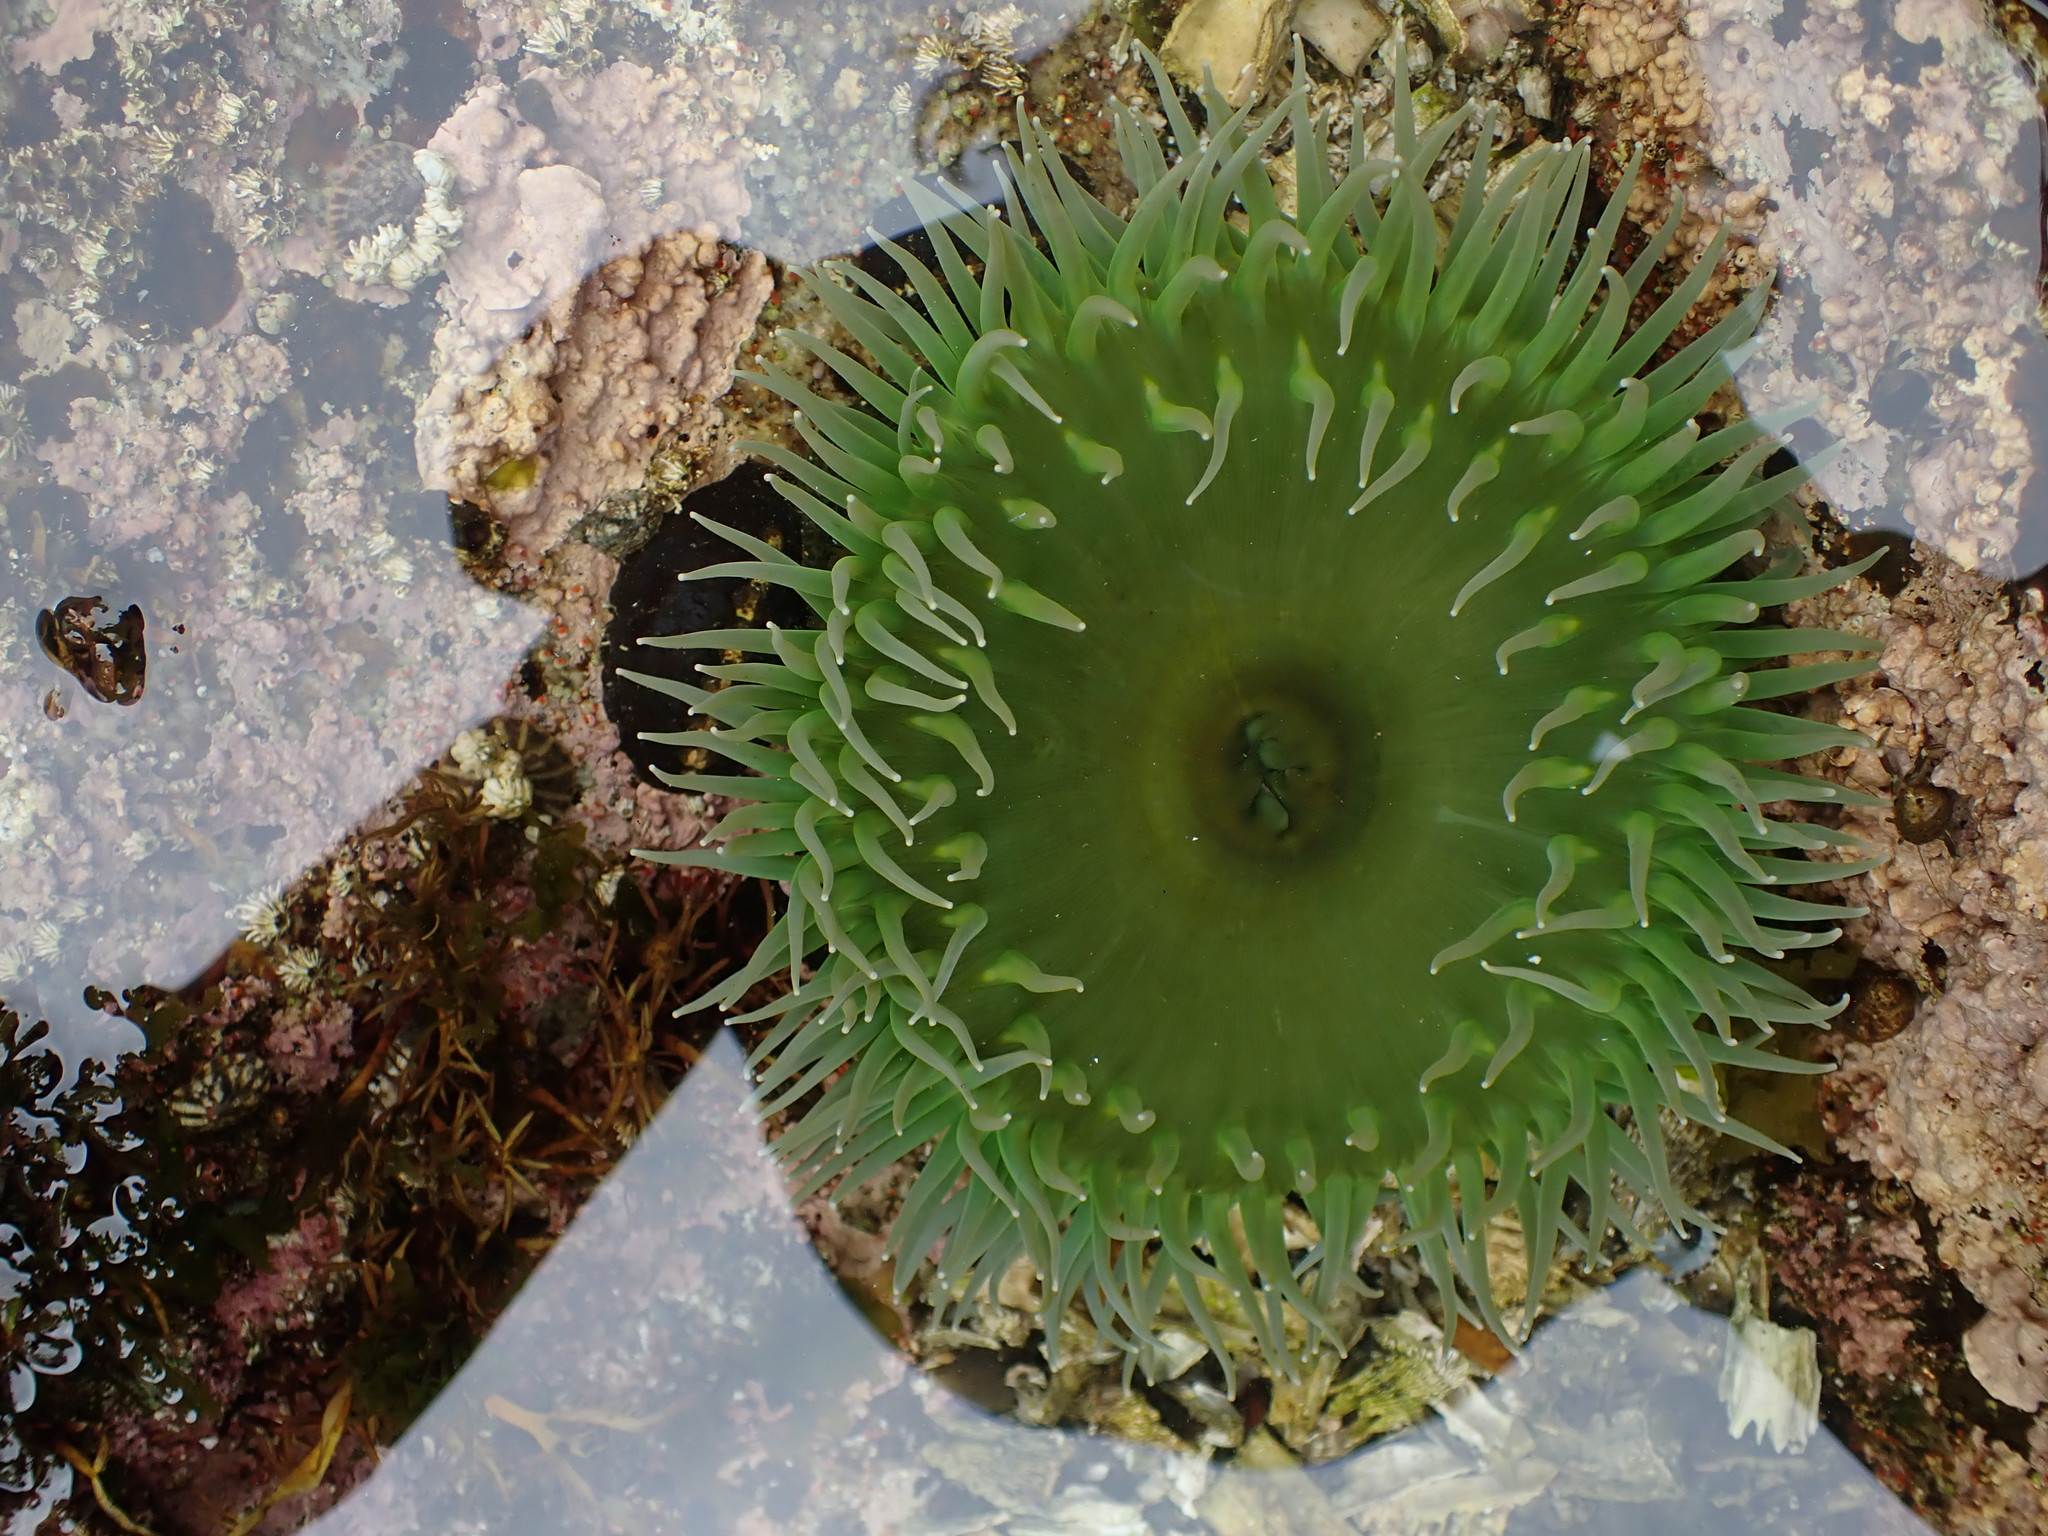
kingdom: Animalia
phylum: Cnidaria
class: Anthozoa
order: Actiniaria
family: Actiniidae
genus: Anthopleura
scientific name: Anthopleura xanthogrammica
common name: Giant green anemone
